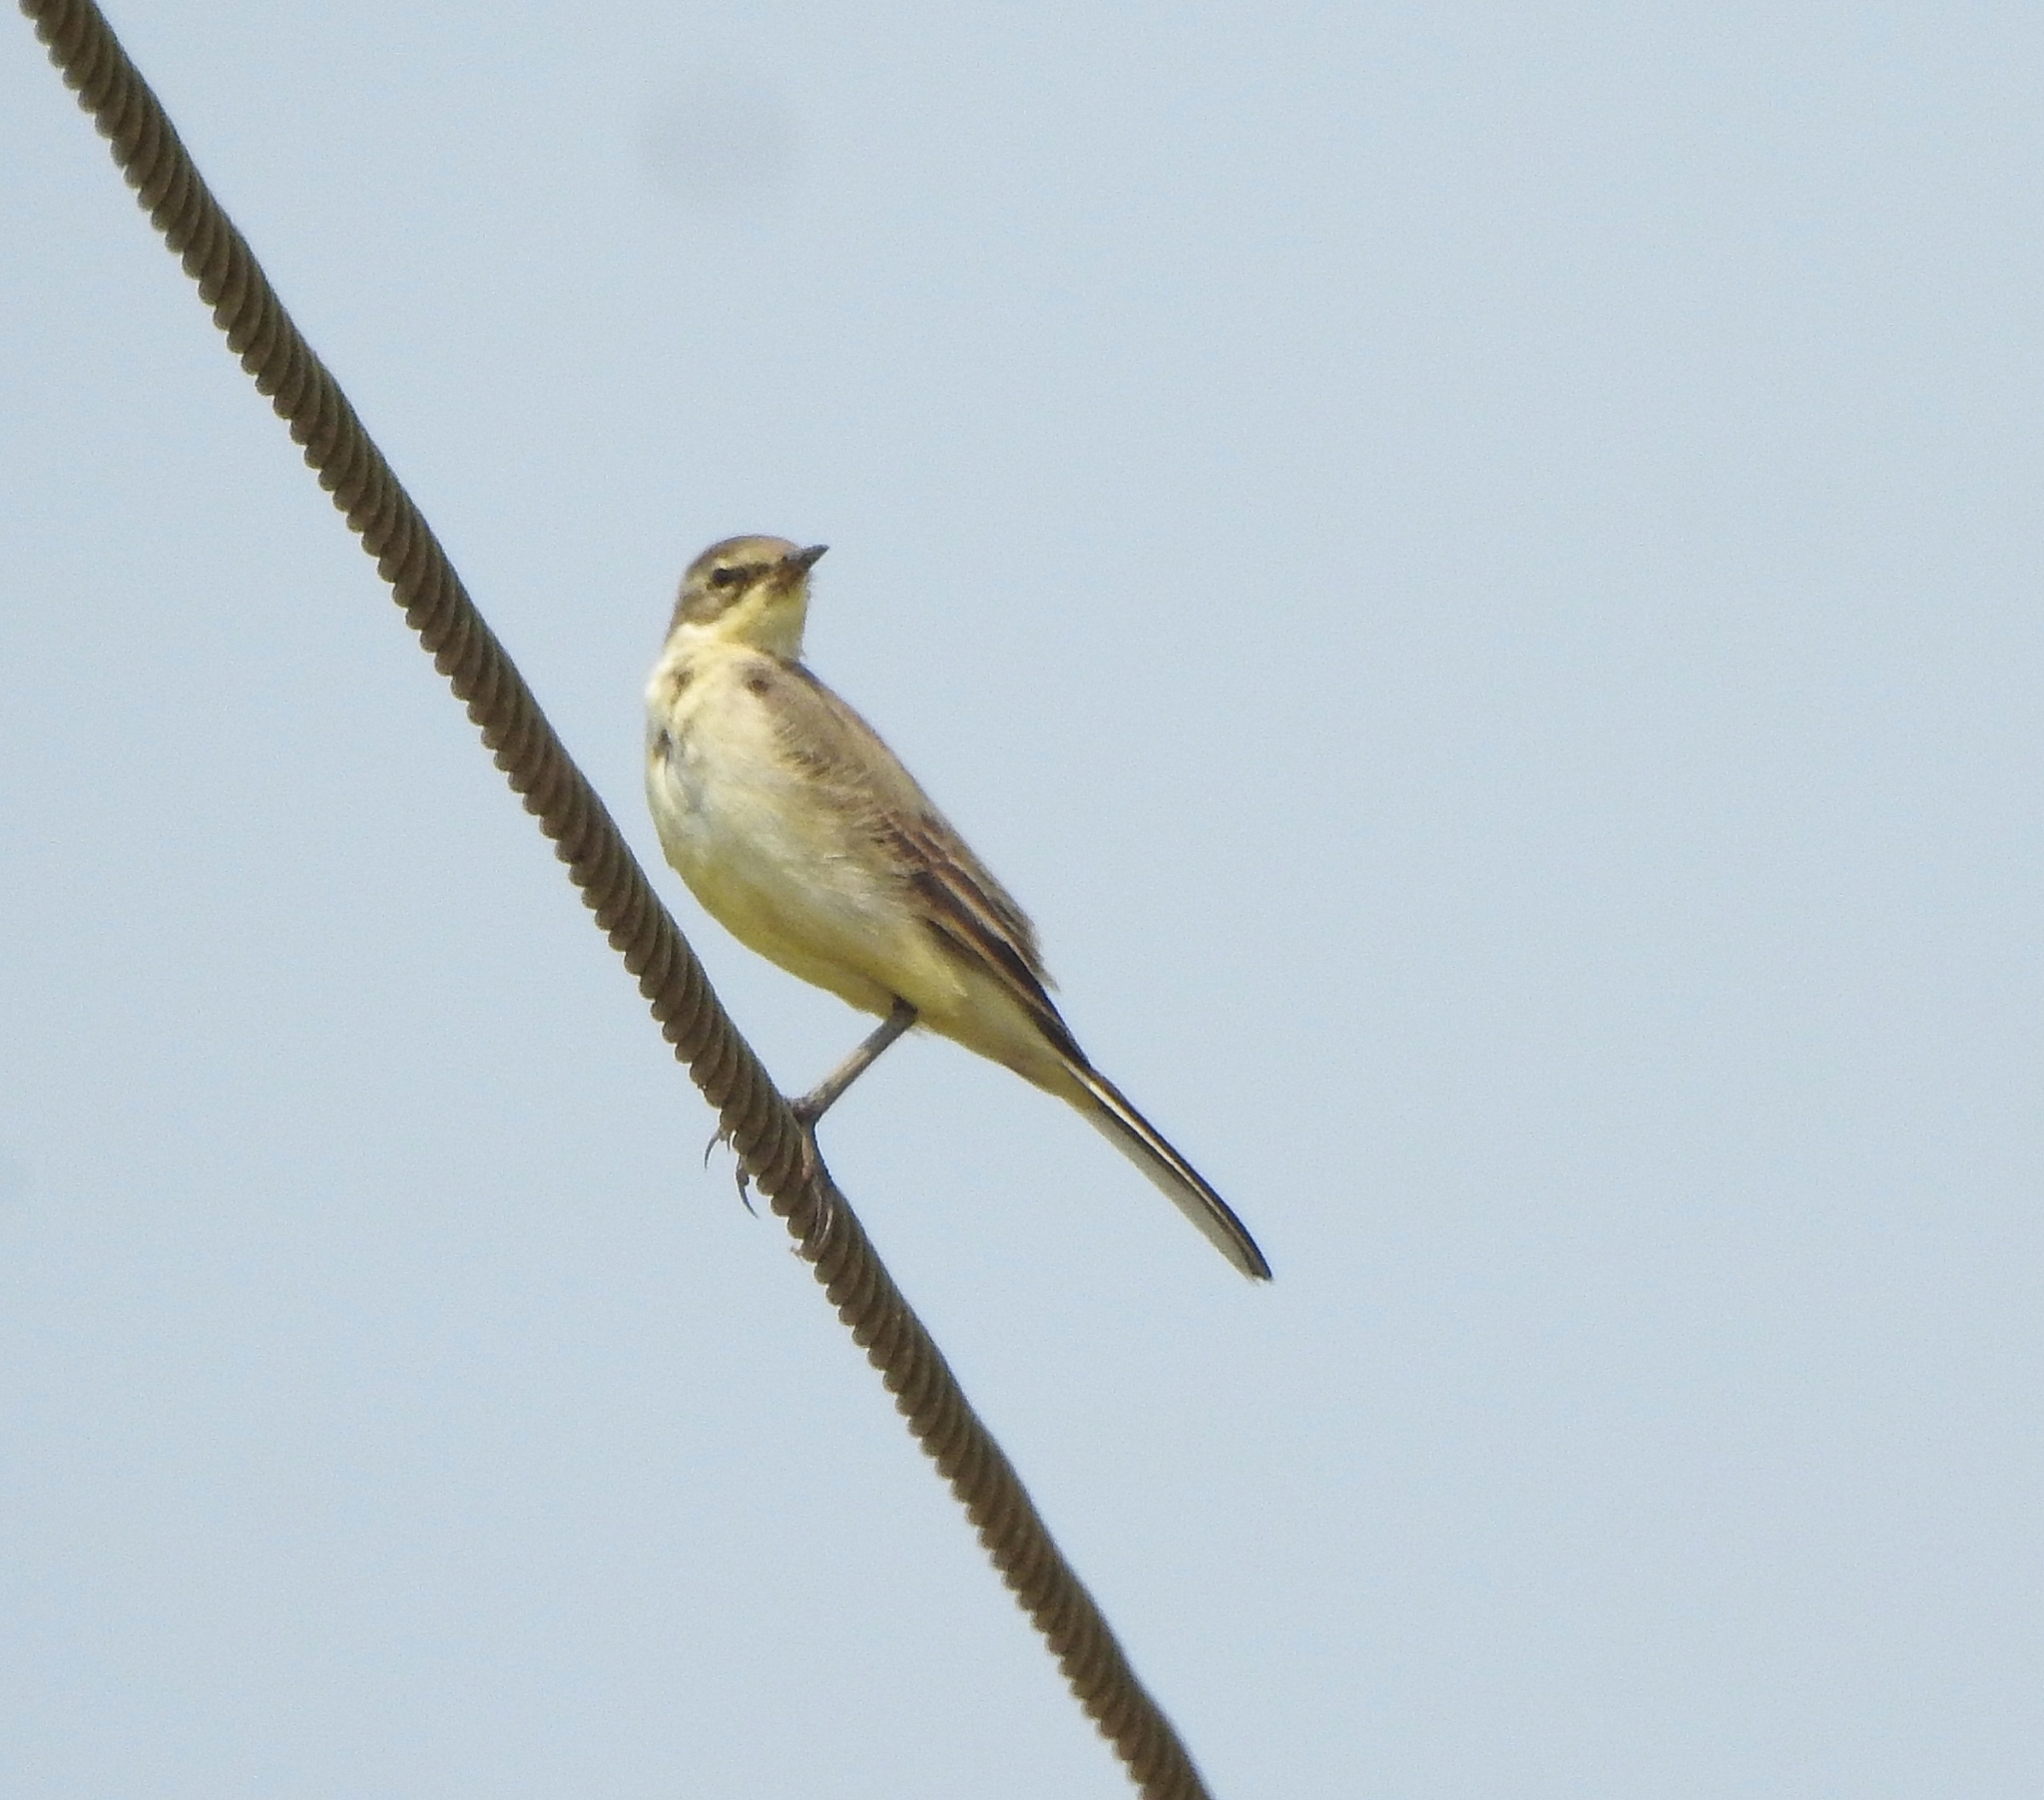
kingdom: Animalia
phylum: Chordata
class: Aves
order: Passeriformes
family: Motacillidae
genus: Motacilla
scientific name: Motacilla flava
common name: Western yellow wagtail
